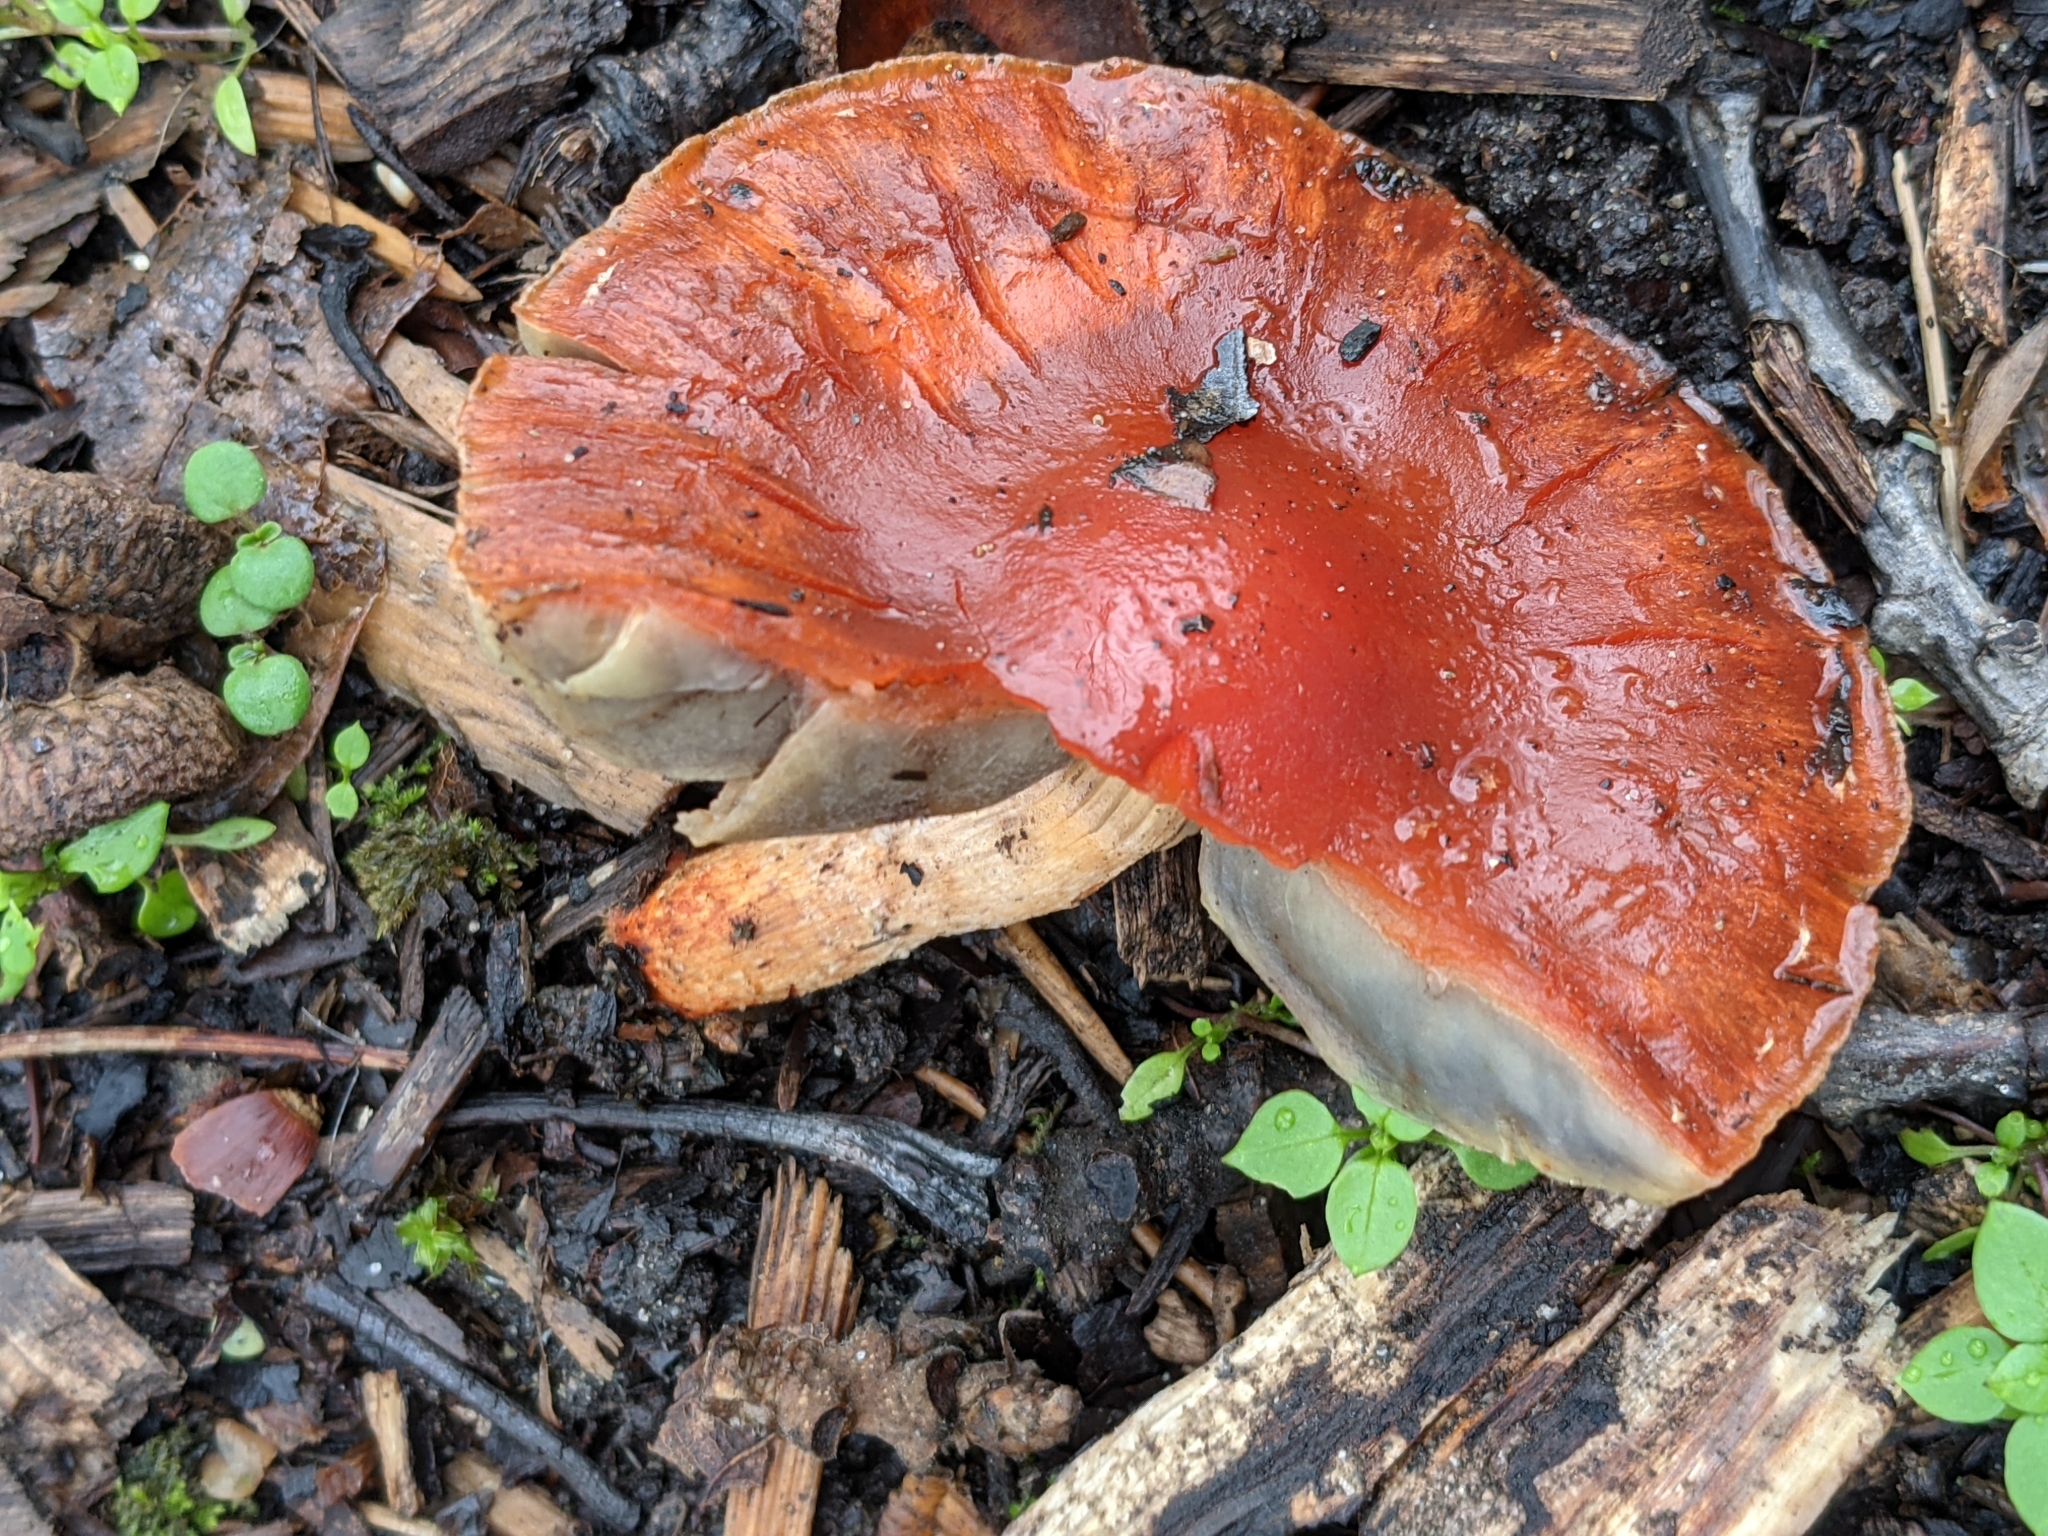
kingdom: Fungi
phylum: Basidiomycota
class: Agaricomycetes
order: Agaricales
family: Strophariaceae
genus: Leratiomyces
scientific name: Leratiomyces ceres
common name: Redlead roundhead
